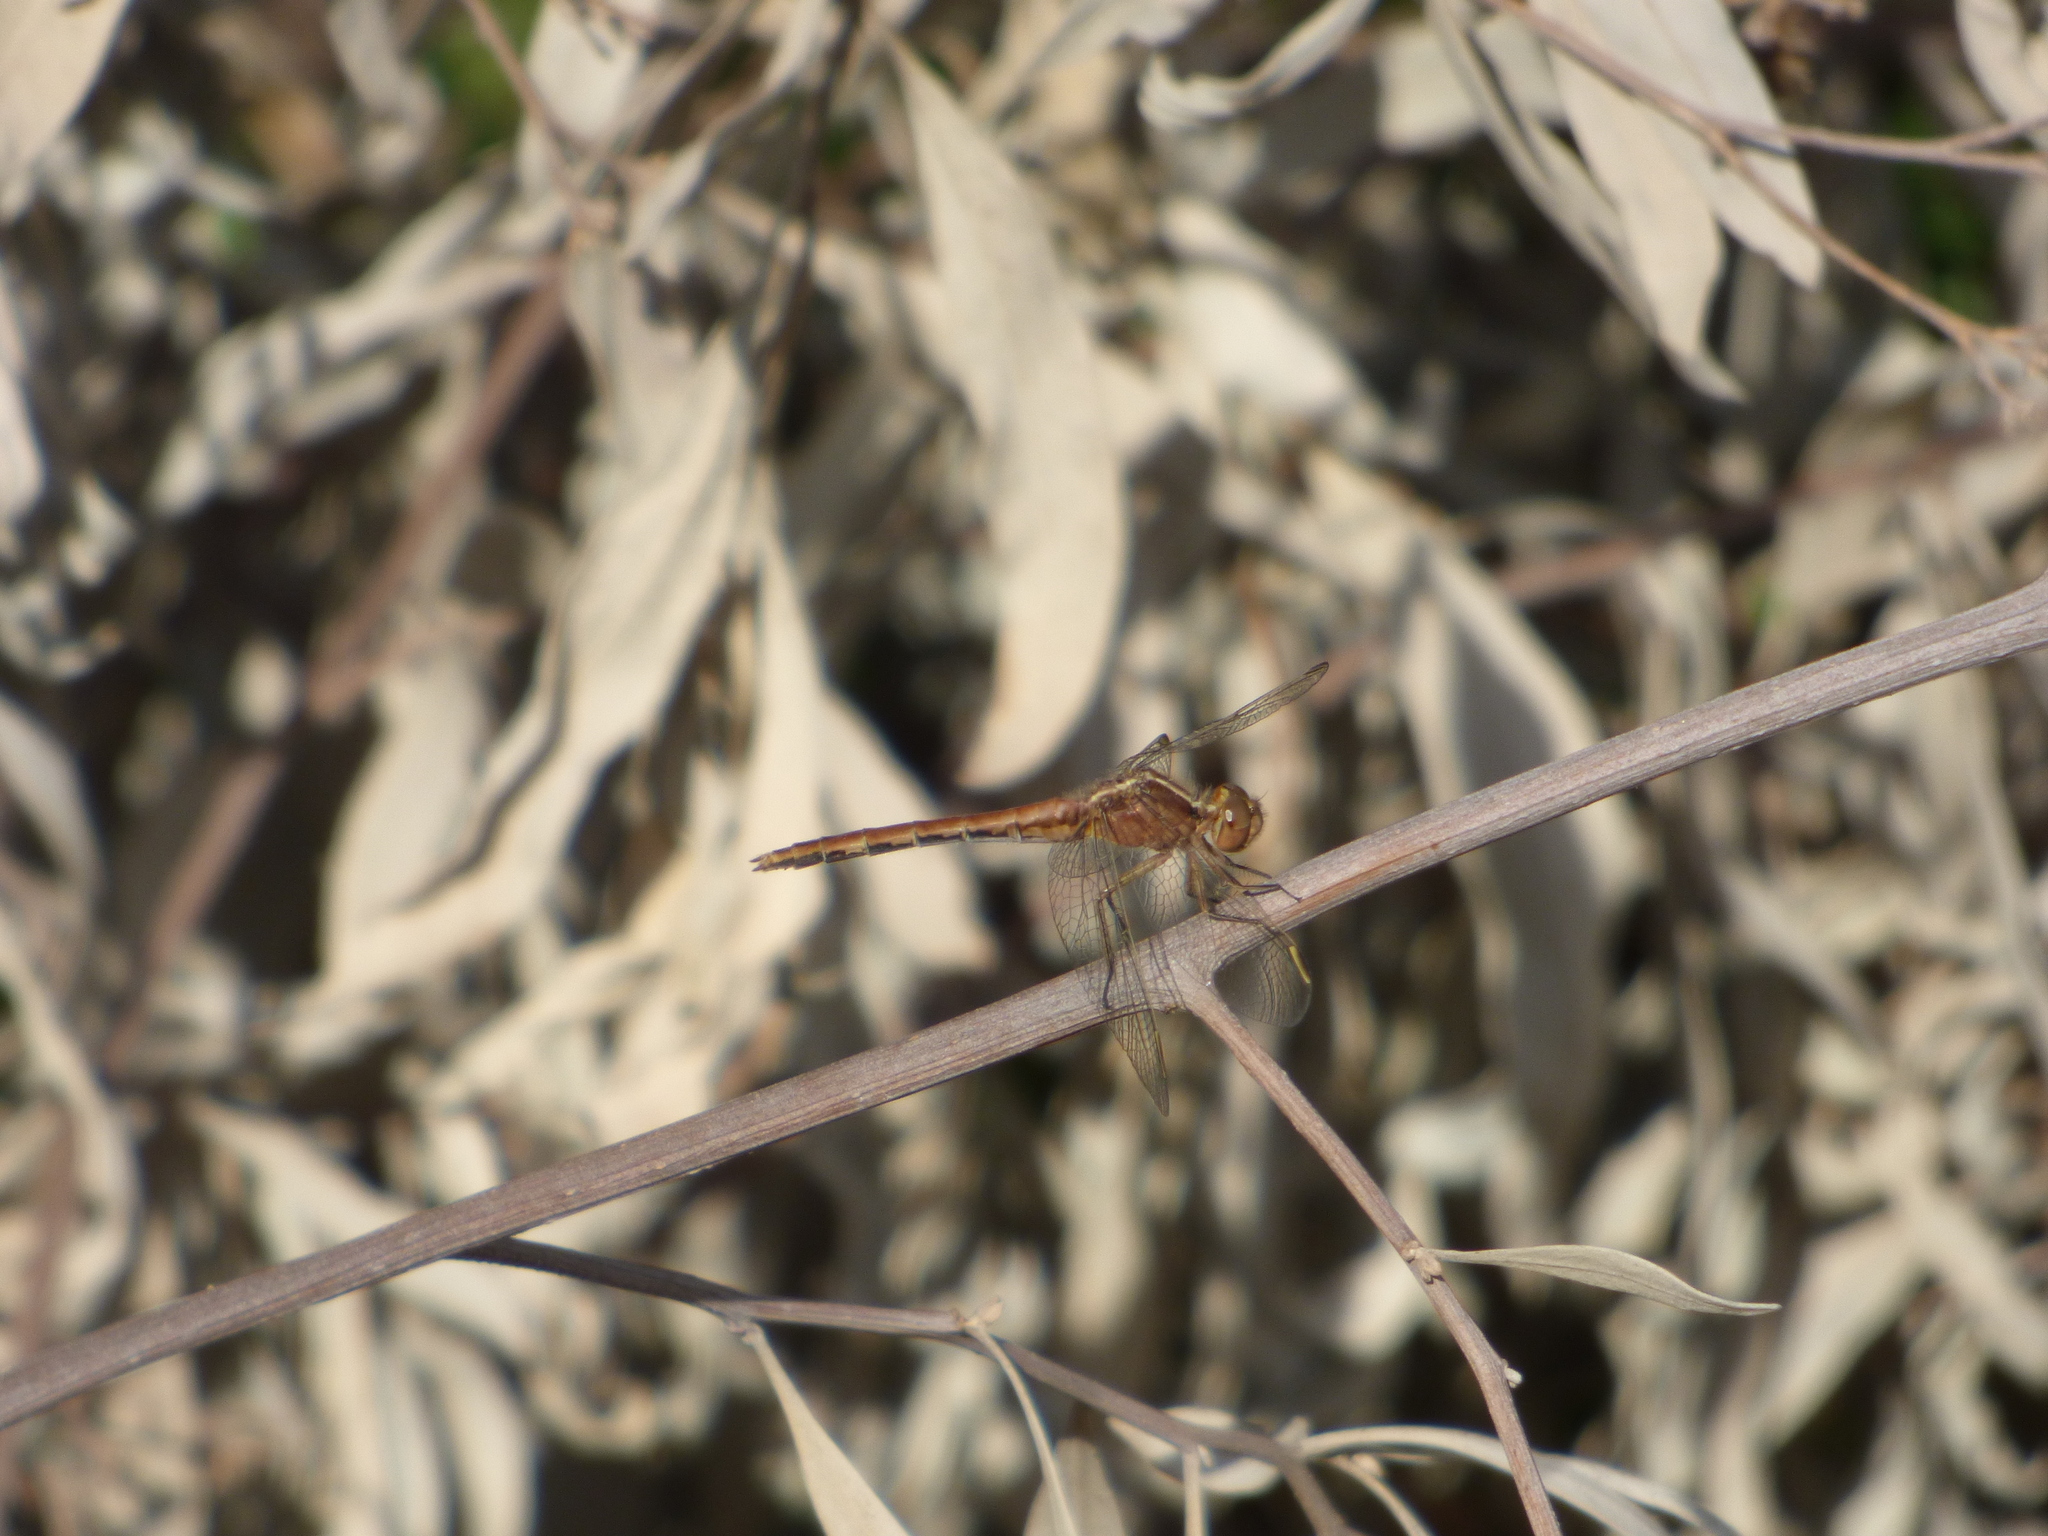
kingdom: Animalia
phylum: Arthropoda
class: Insecta
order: Odonata
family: Libellulidae
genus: Erythrodiplax
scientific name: Erythrodiplax nigricans
